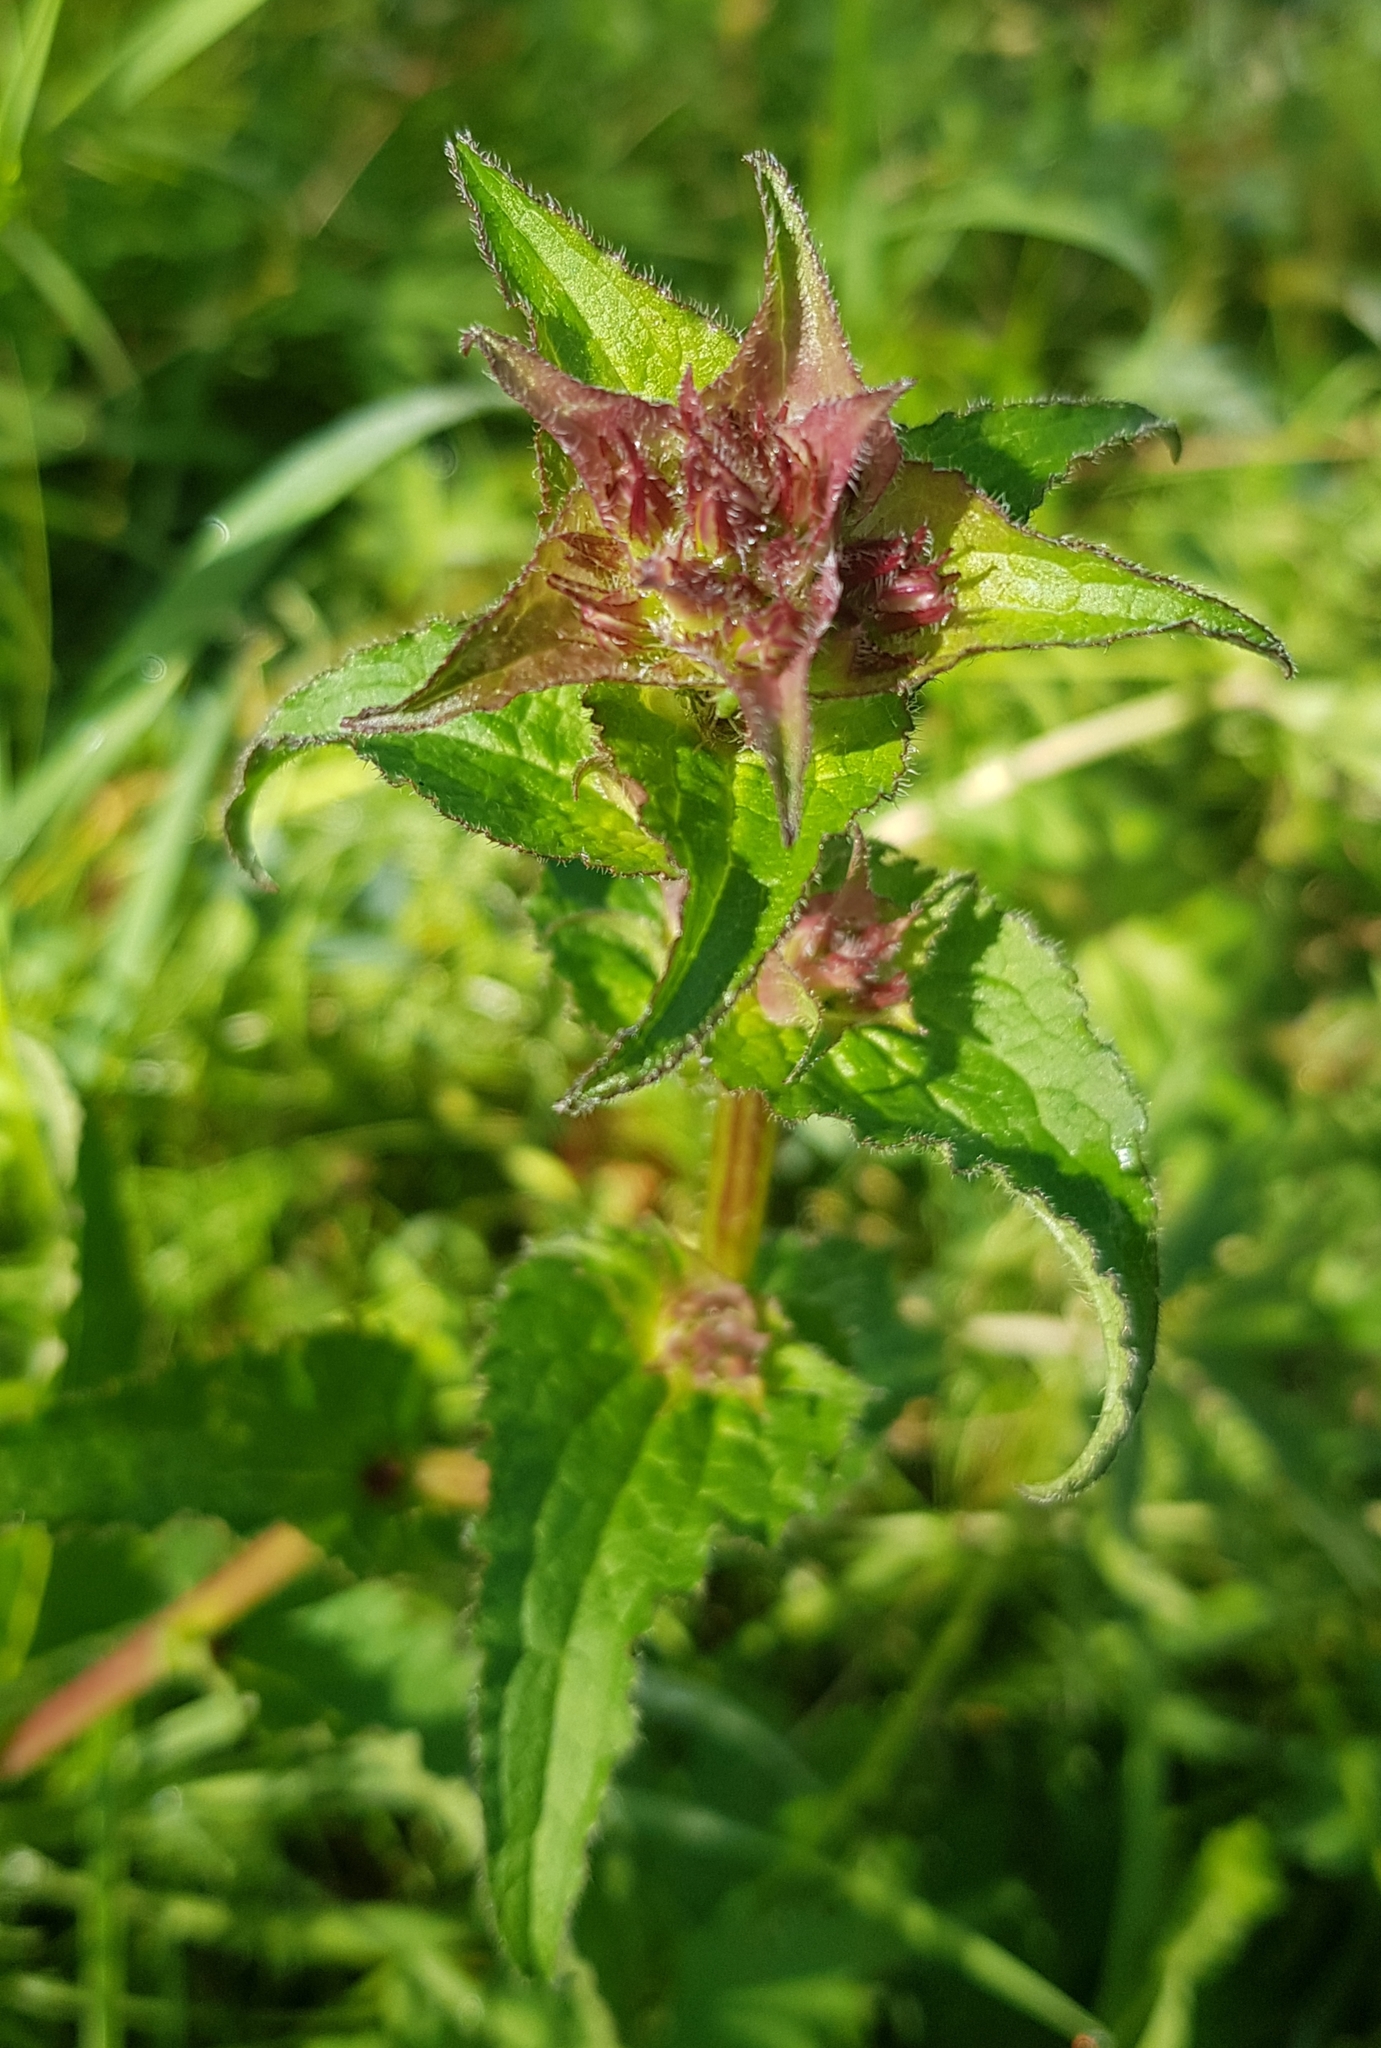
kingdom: Plantae
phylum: Tracheophyta
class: Magnoliopsida
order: Asterales
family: Campanulaceae
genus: Campanula
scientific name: Campanula glomerata
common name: Clustered bellflower
